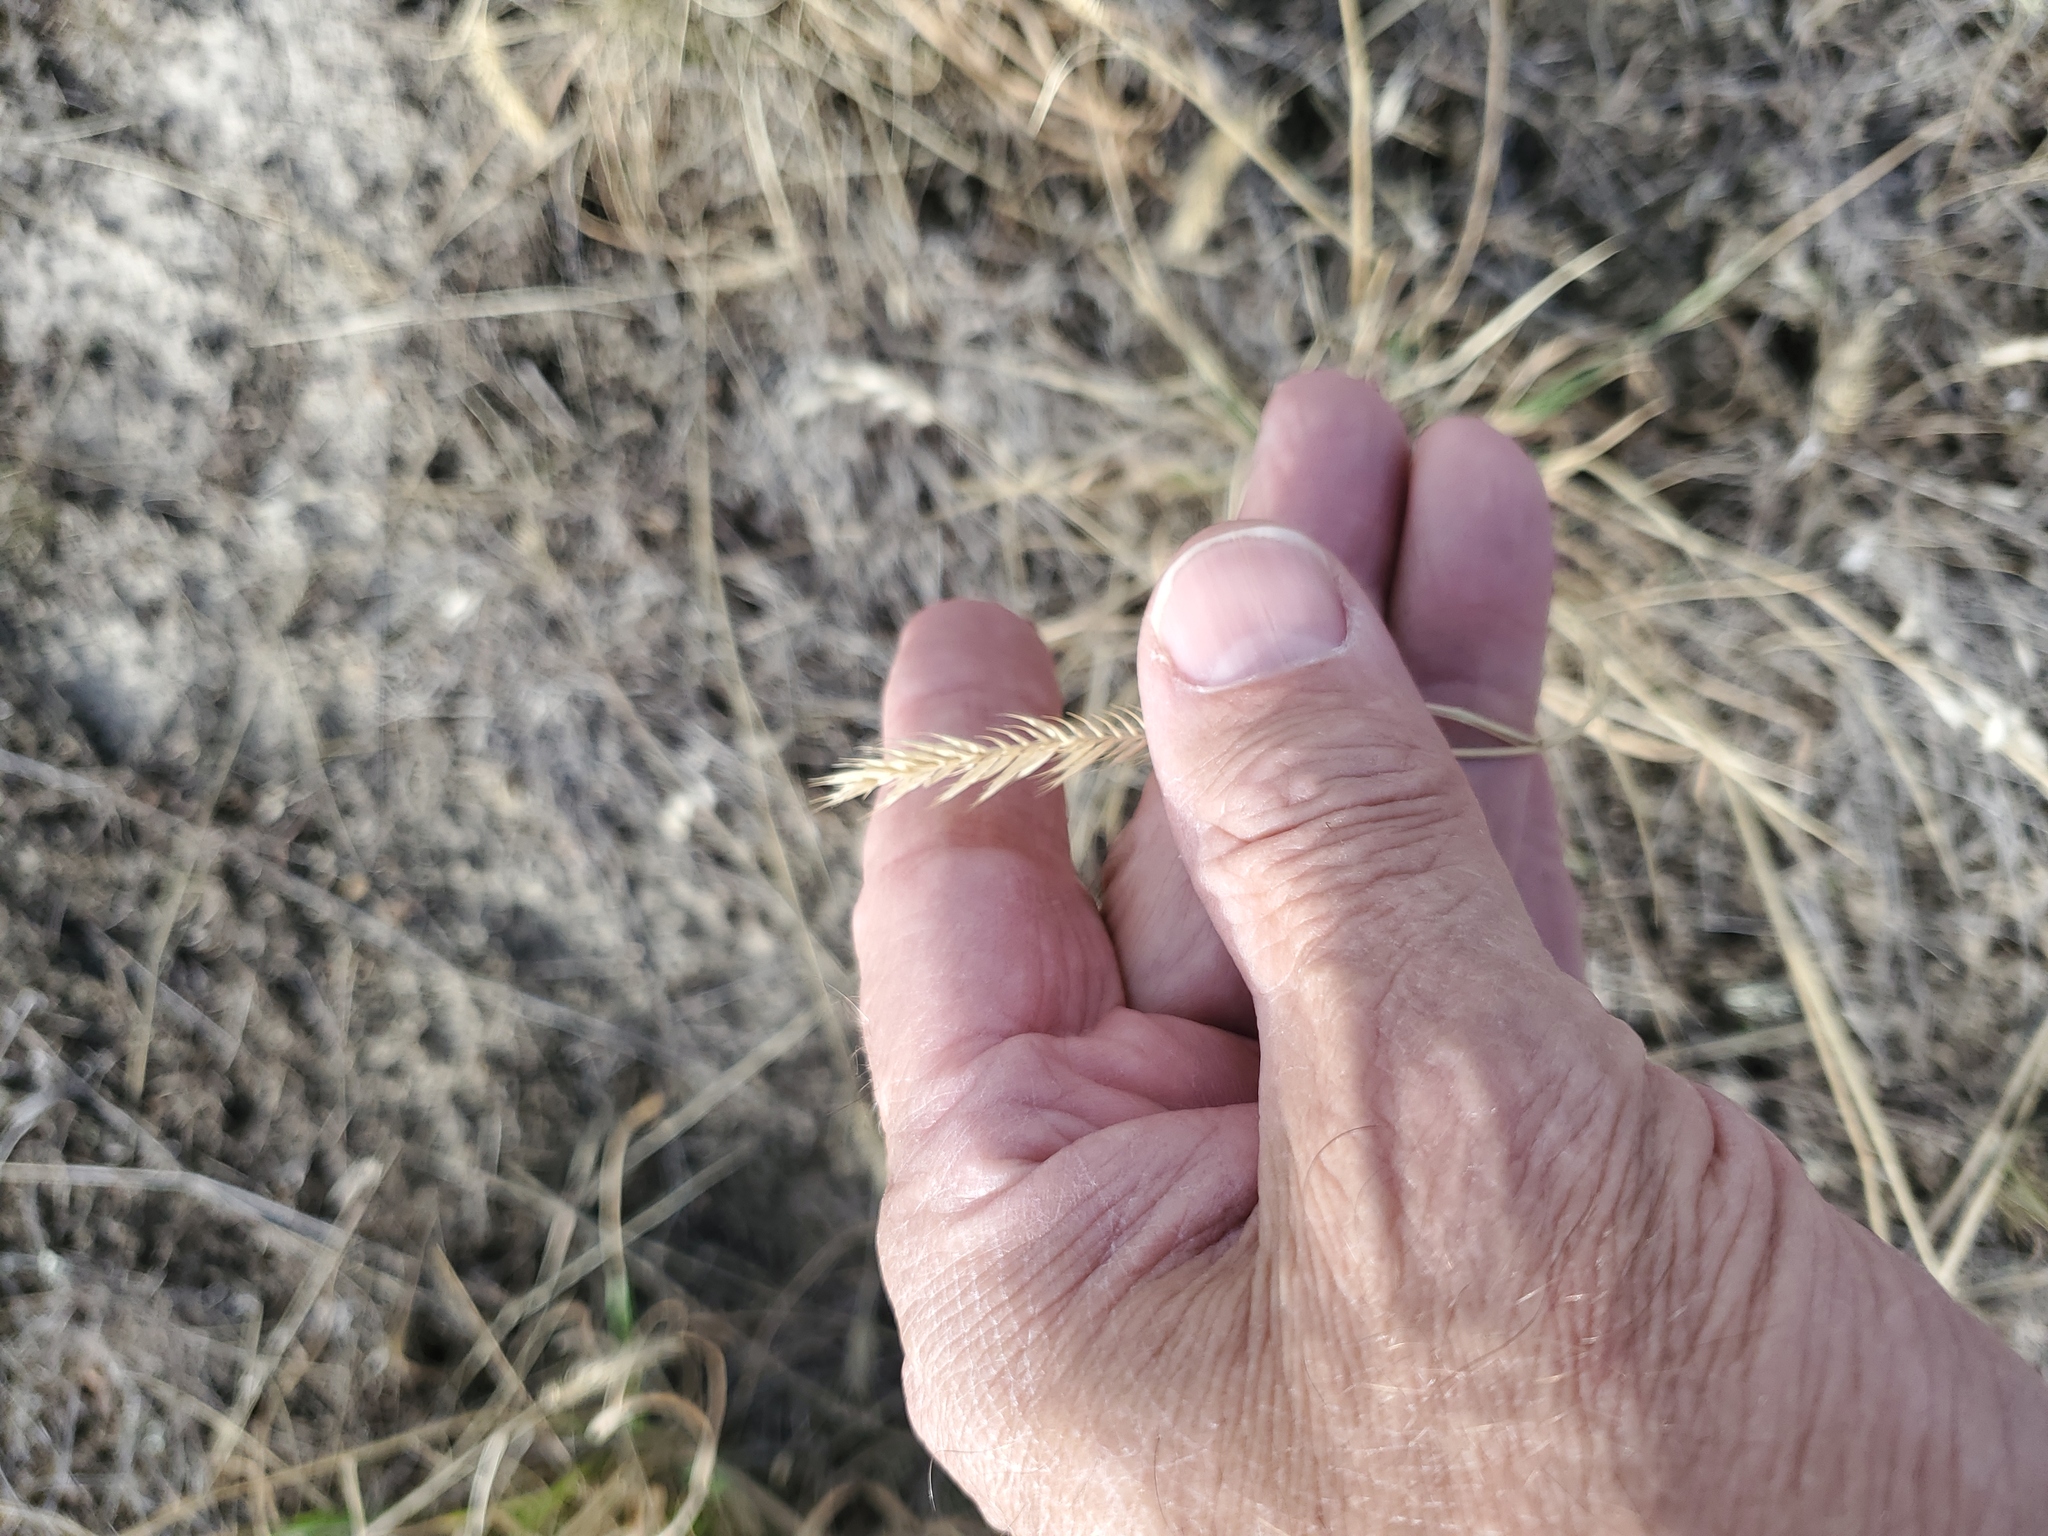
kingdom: Plantae
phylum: Tracheophyta
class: Liliopsida
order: Poales
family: Poaceae
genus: Agropyron
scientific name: Agropyron cristatum
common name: Crested wheatgrass
